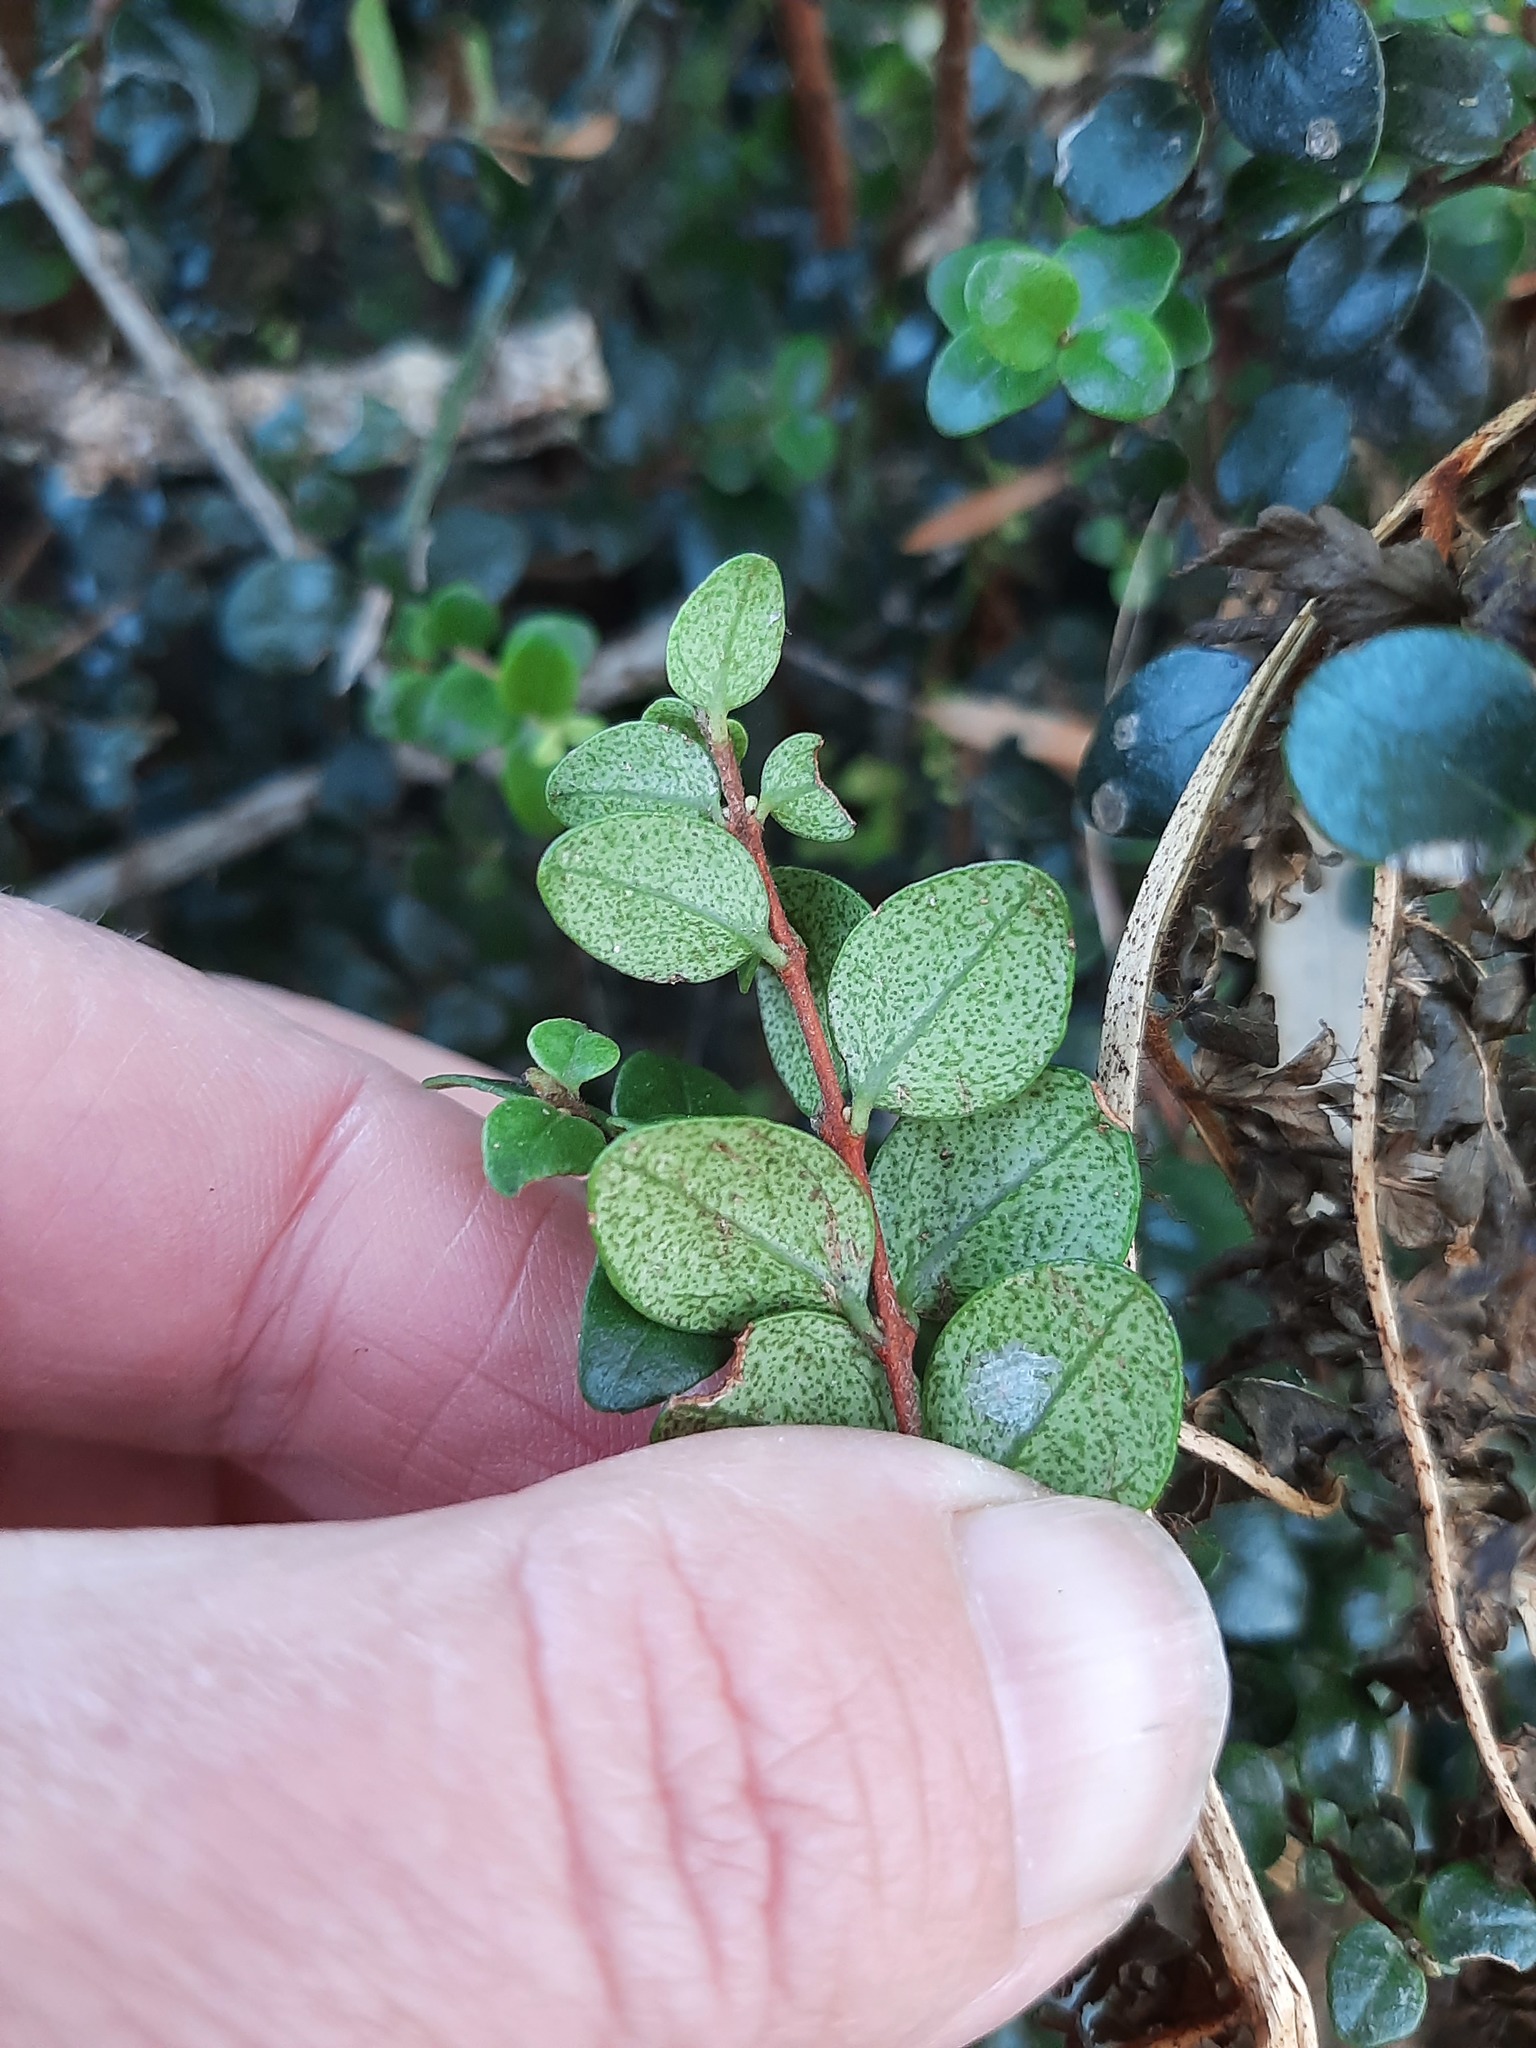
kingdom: Plantae
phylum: Tracheophyta
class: Magnoliopsida
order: Myrtales
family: Myrtaceae
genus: Metrosideros
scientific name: Metrosideros perforata
